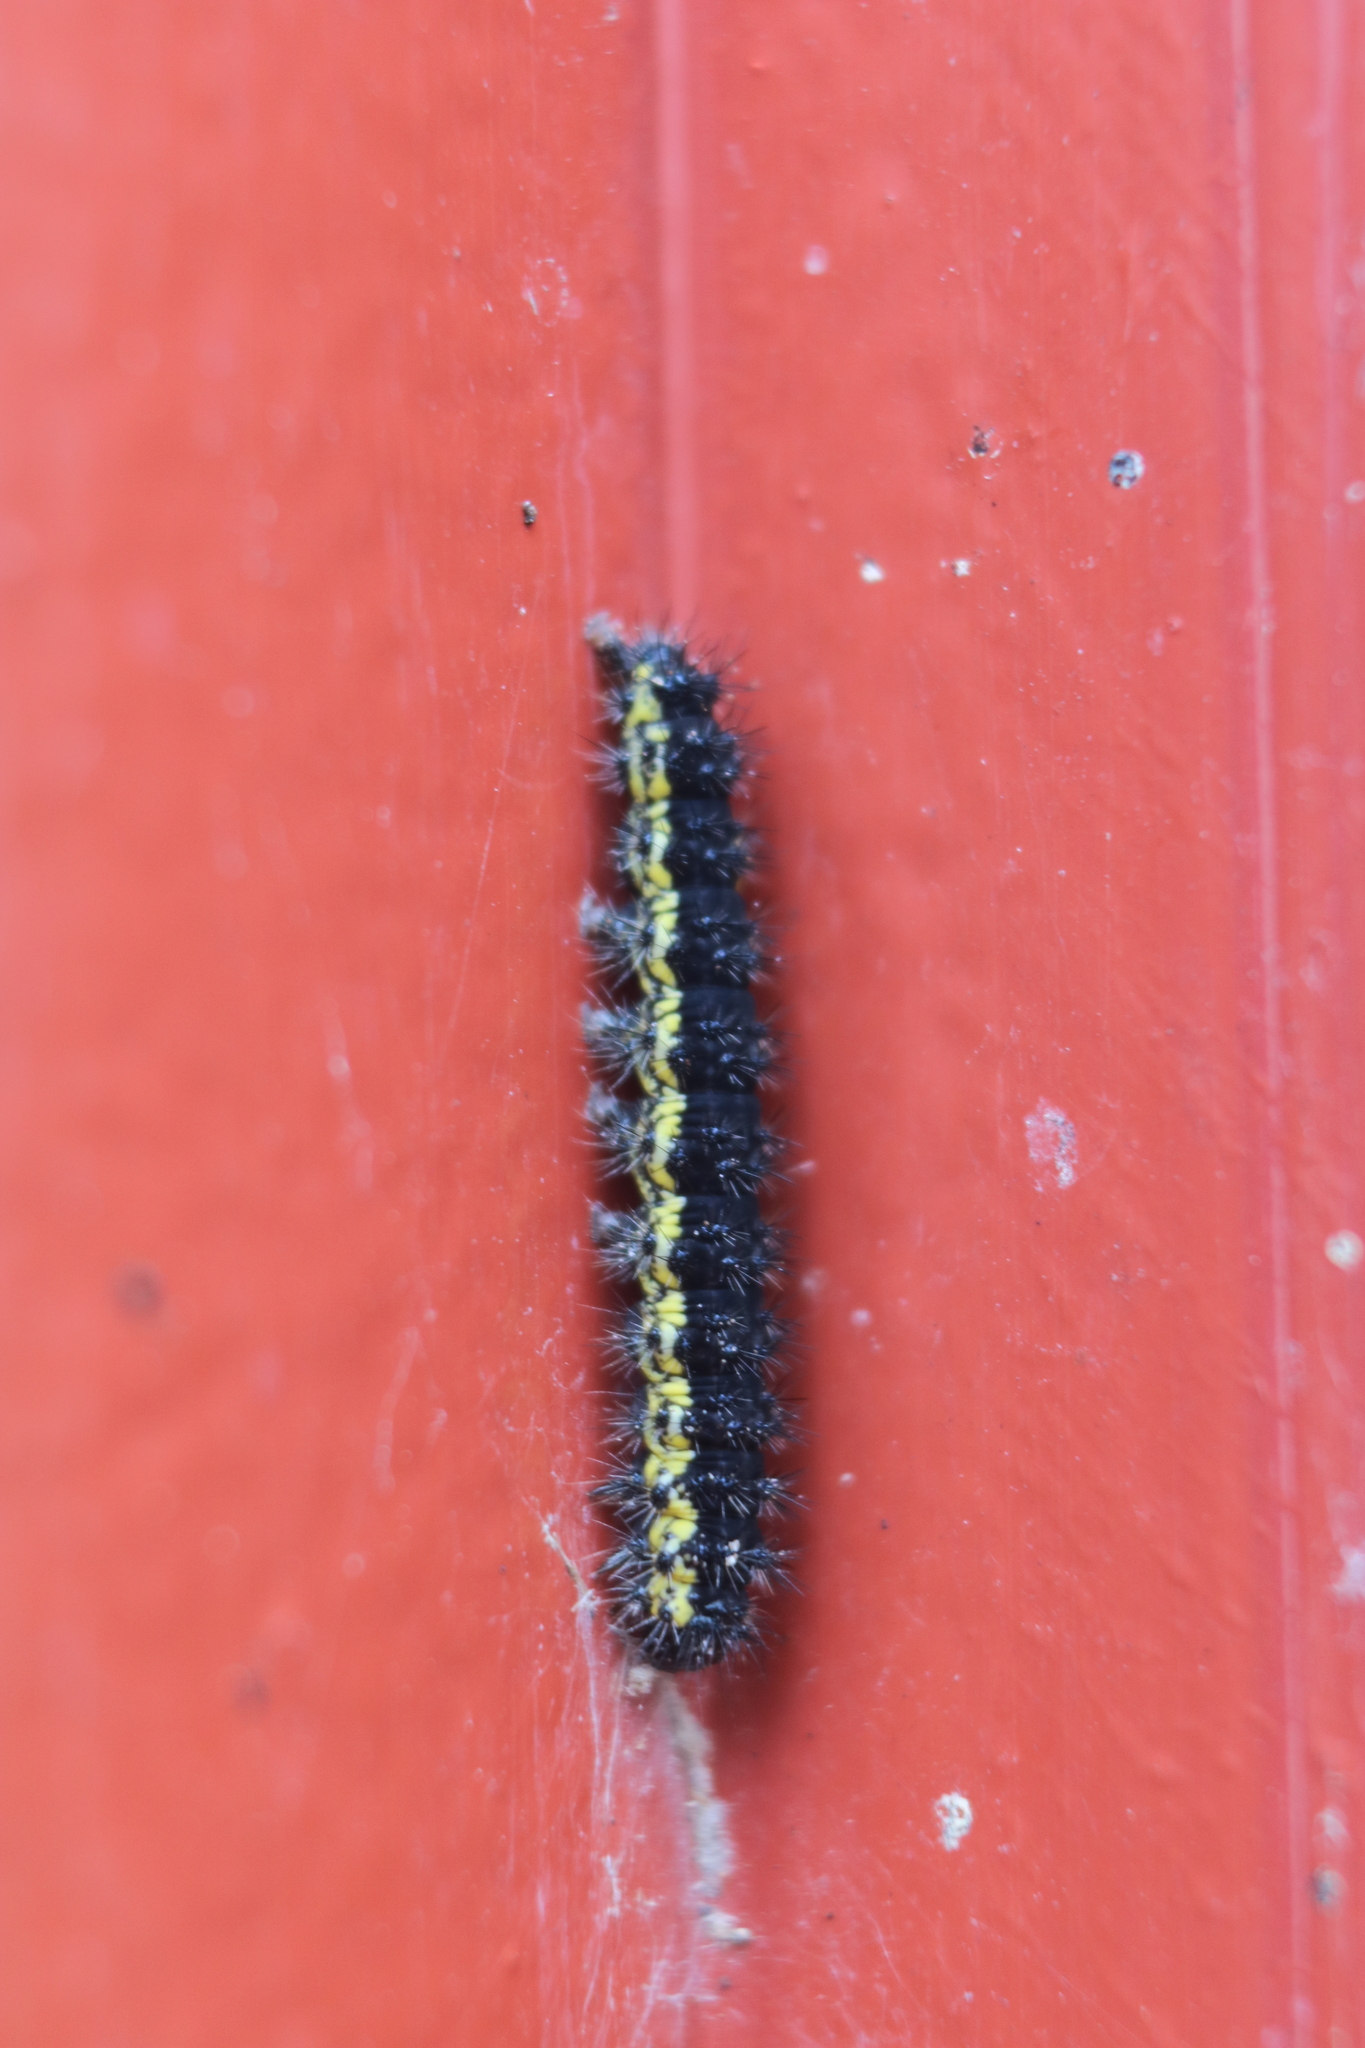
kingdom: Animalia
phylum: Arthropoda
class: Insecta
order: Lepidoptera
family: Erebidae
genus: Haploa
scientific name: Haploa clymene
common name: Clymene moth
